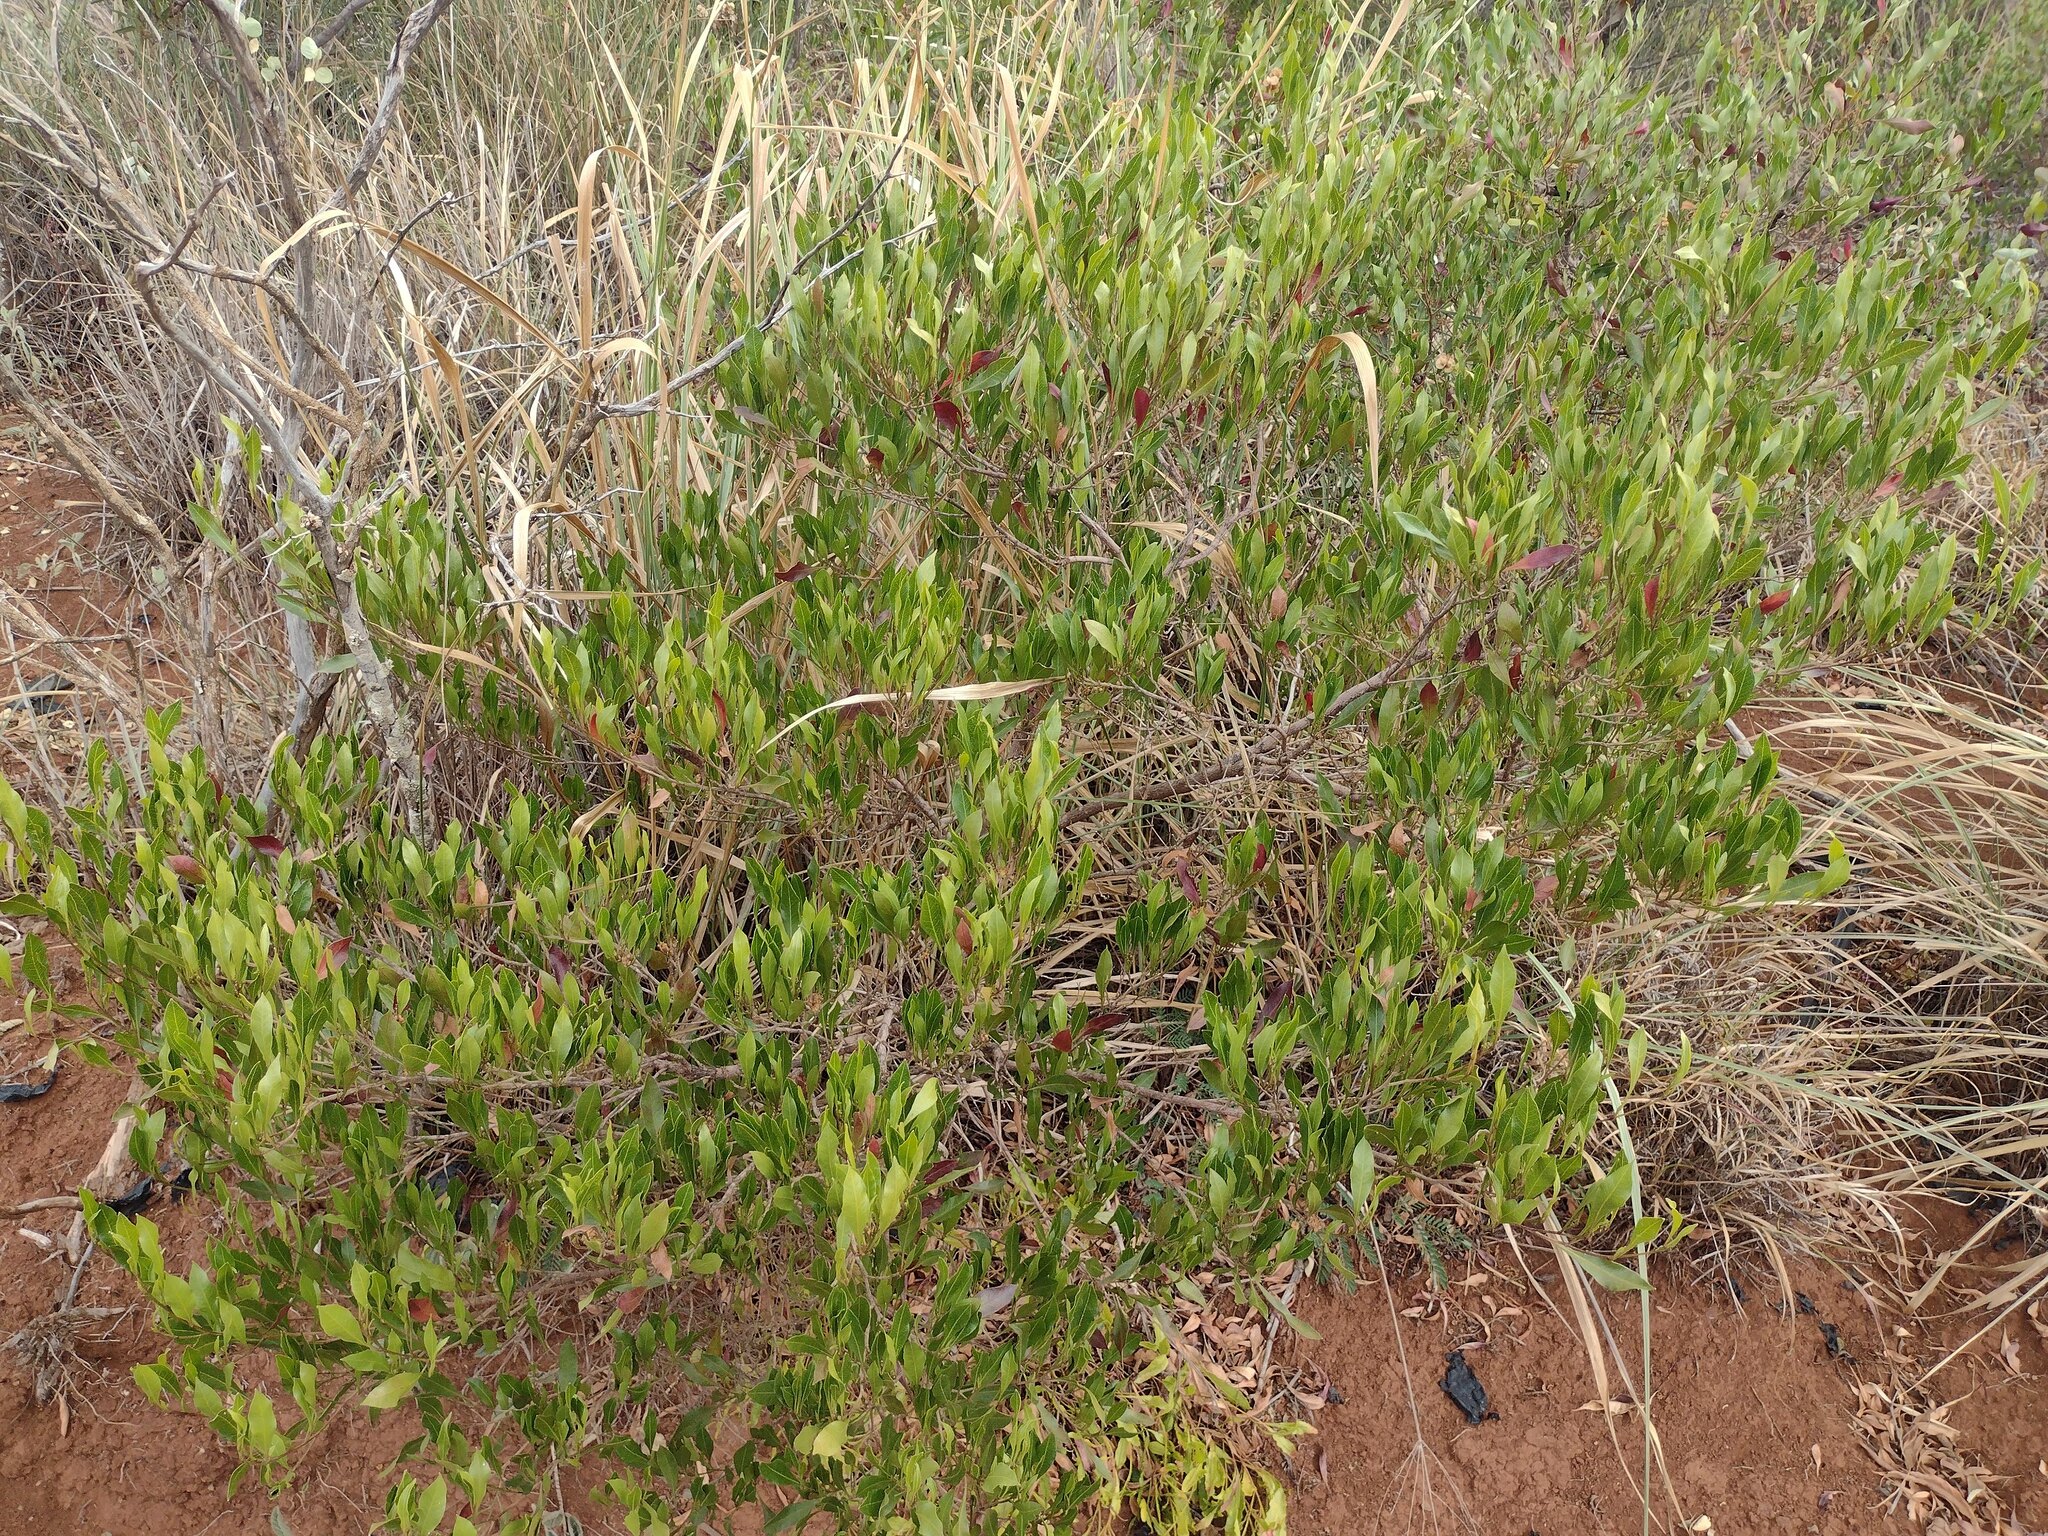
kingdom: Plantae
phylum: Tracheophyta
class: Magnoliopsida
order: Sapindales
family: Sapindaceae
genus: Dodonaea
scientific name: Dodonaea viscosa
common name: Hopbush
